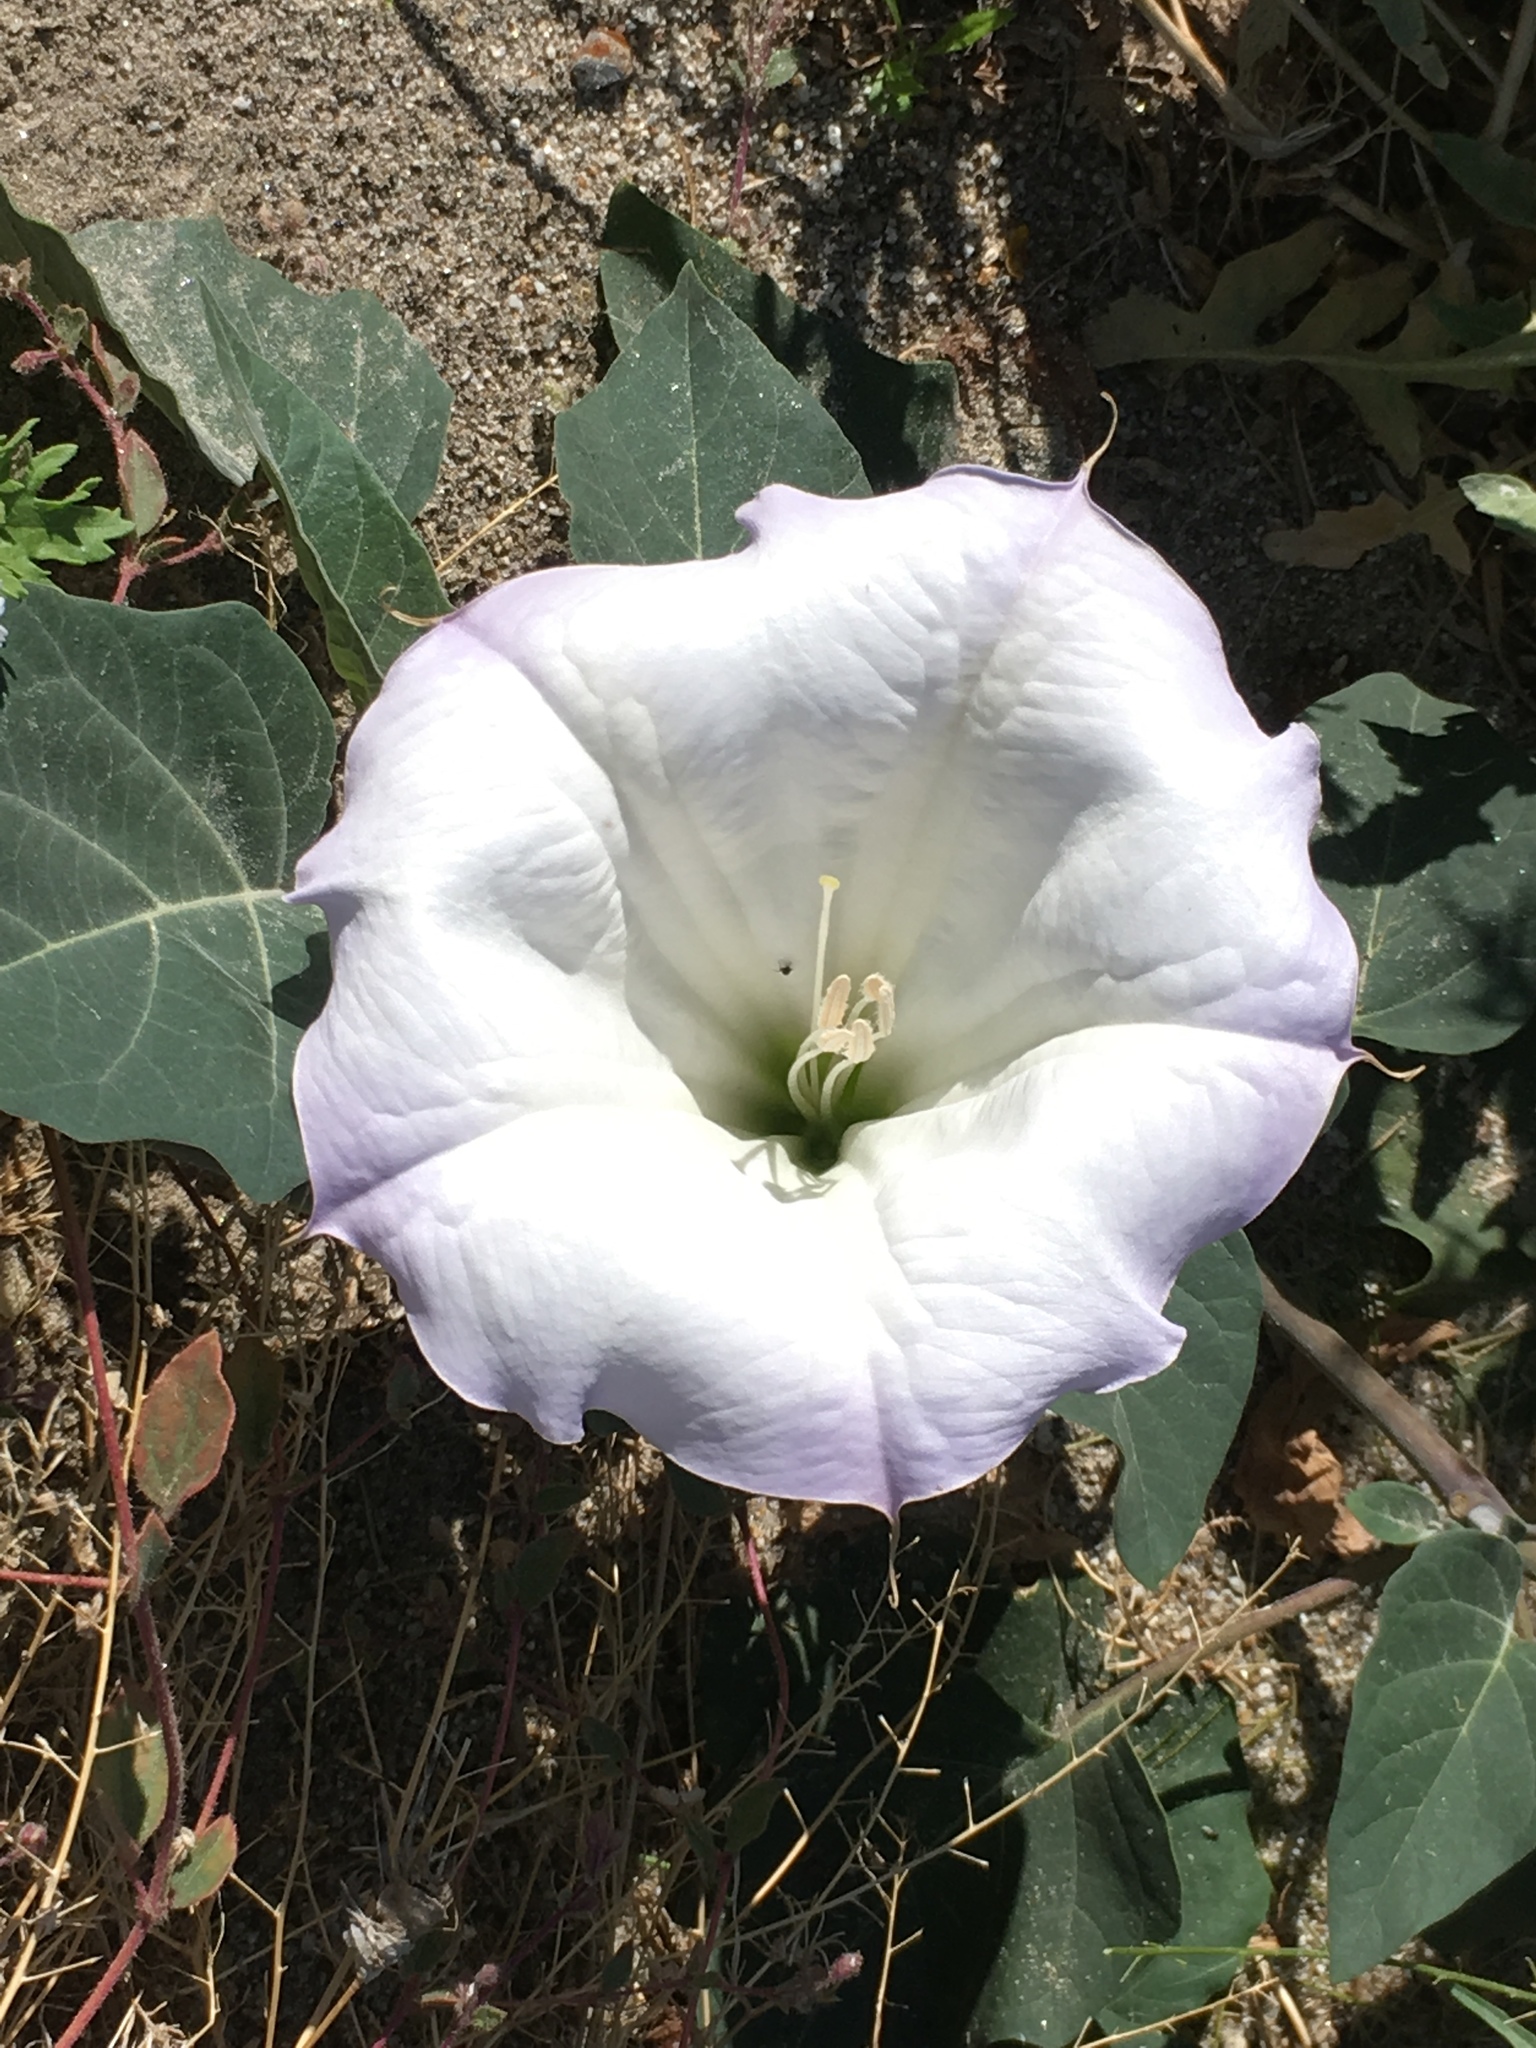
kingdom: Plantae
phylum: Tracheophyta
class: Magnoliopsida
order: Solanales
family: Solanaceae
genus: Datura
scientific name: Datura wrightii
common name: Sacred thorn-apple
